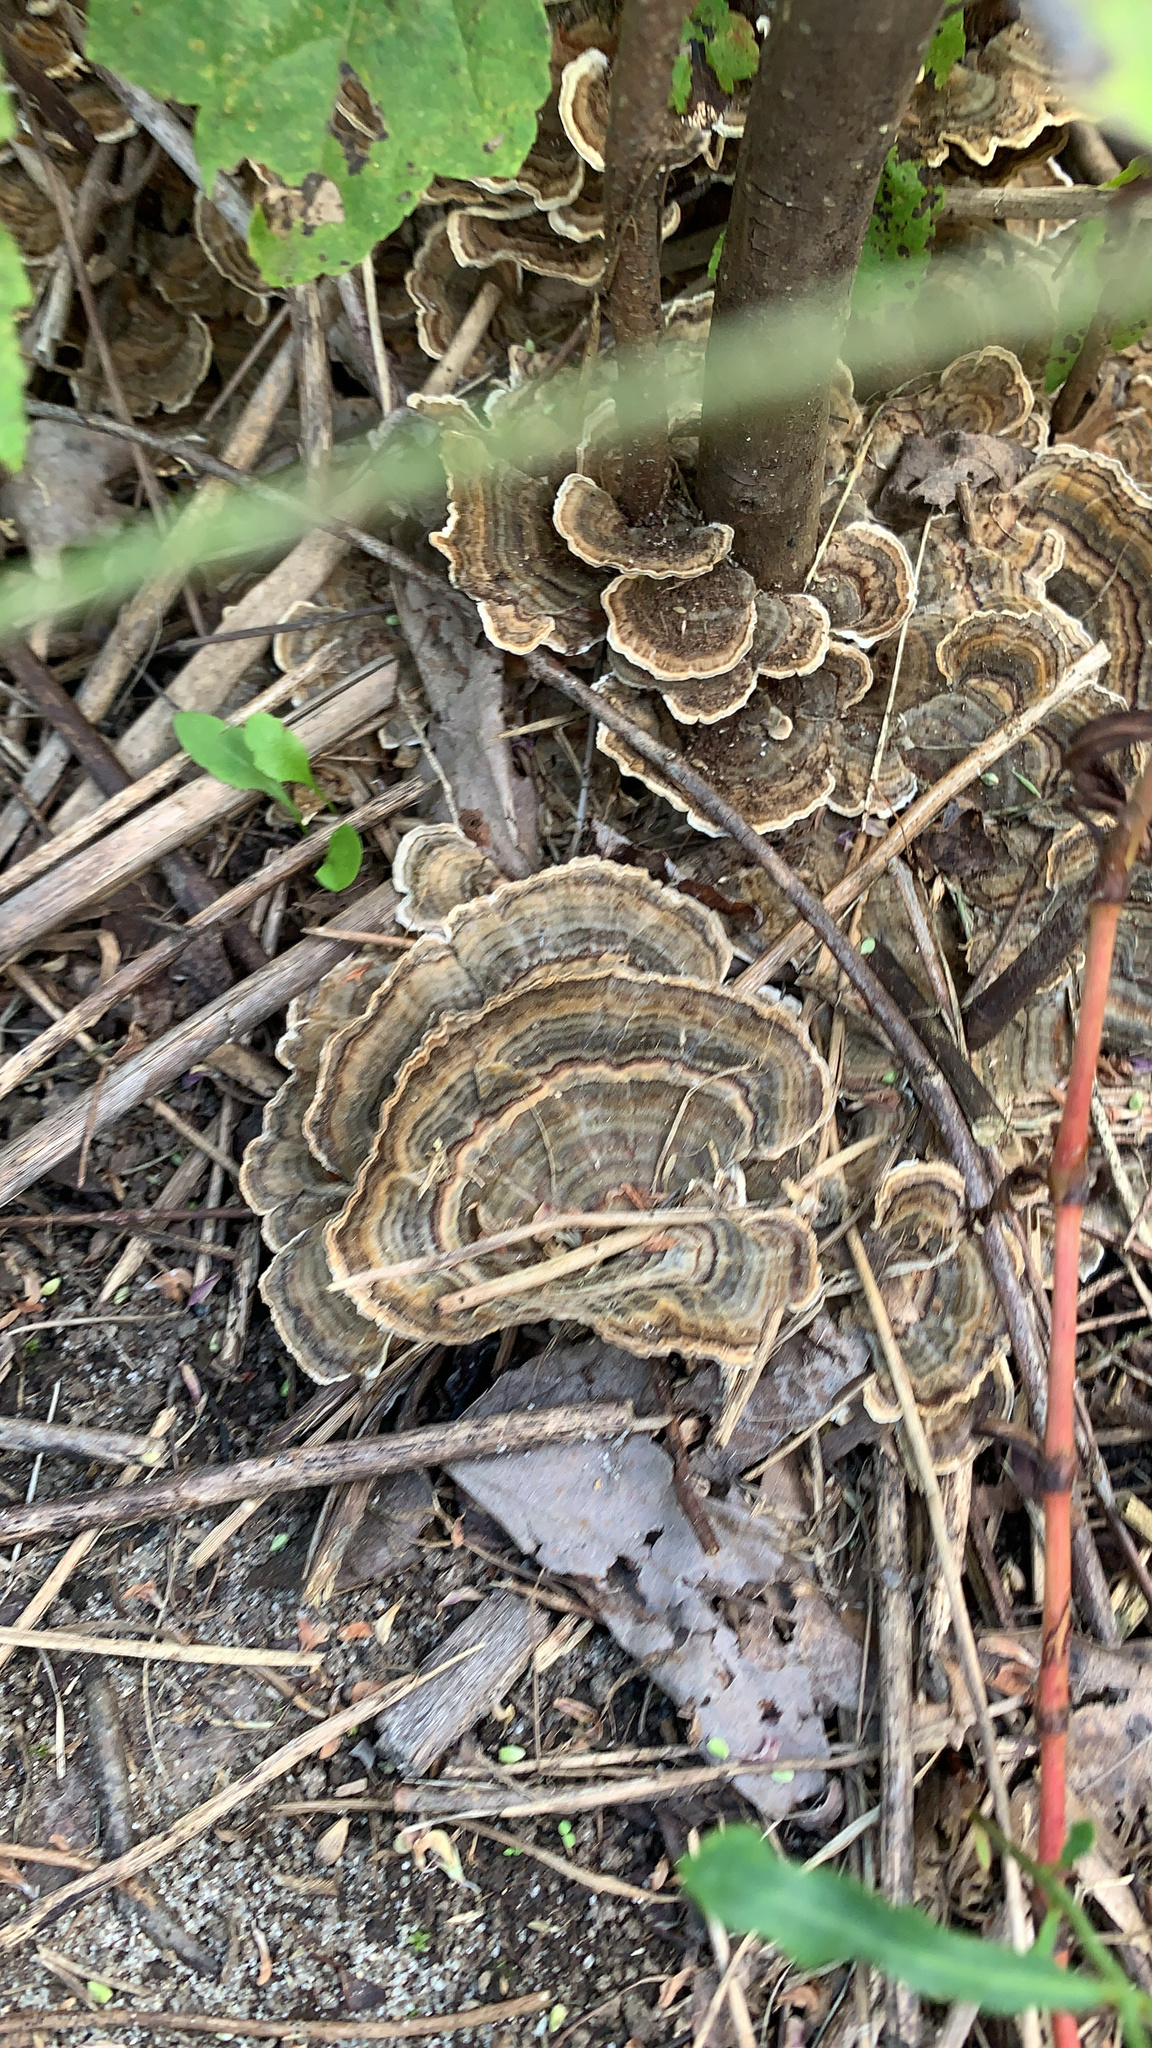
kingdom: Fungi
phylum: Basidiomycota
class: Agaricomycetes
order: Polyporales
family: Polyporaceae
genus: Trametes
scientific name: Trametes versicolor
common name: Turkeytail
